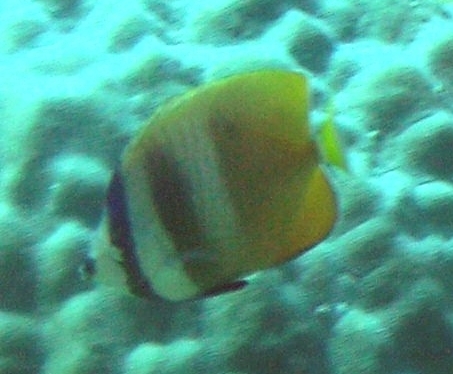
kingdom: Animalia
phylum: Chordata
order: Perciformes
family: Chaetodontidae
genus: Chaetodon
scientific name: Chaetodon kleinii
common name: Klein's butterflyfish
